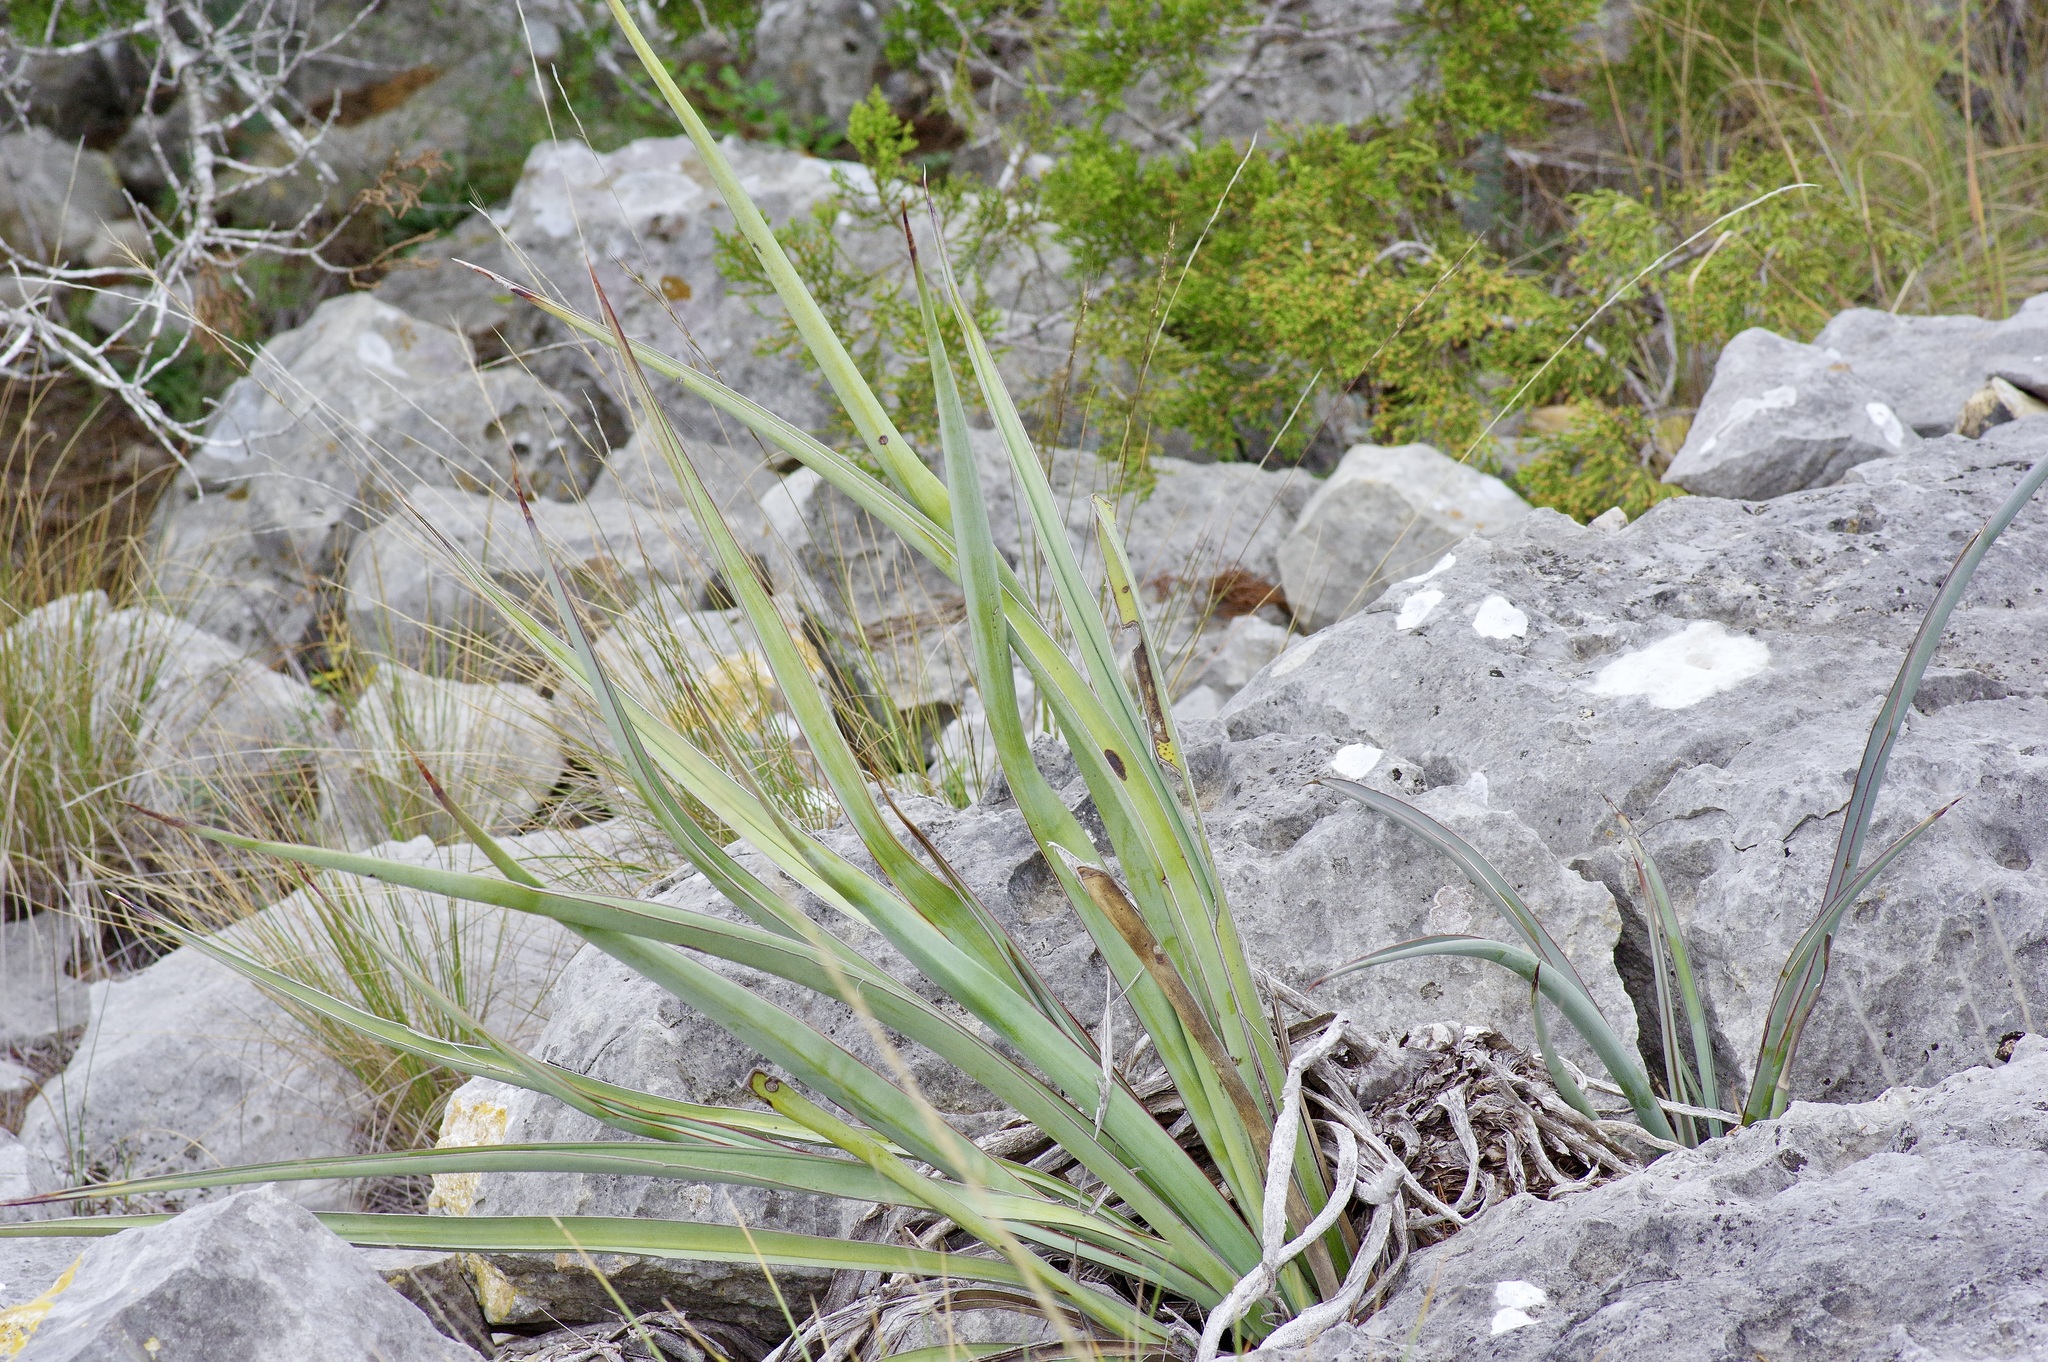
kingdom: Plantae
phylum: Tracheophyta
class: Liliopsida
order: Asparagales
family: Asparagaceae
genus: Yucca
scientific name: Yucca treculiana
